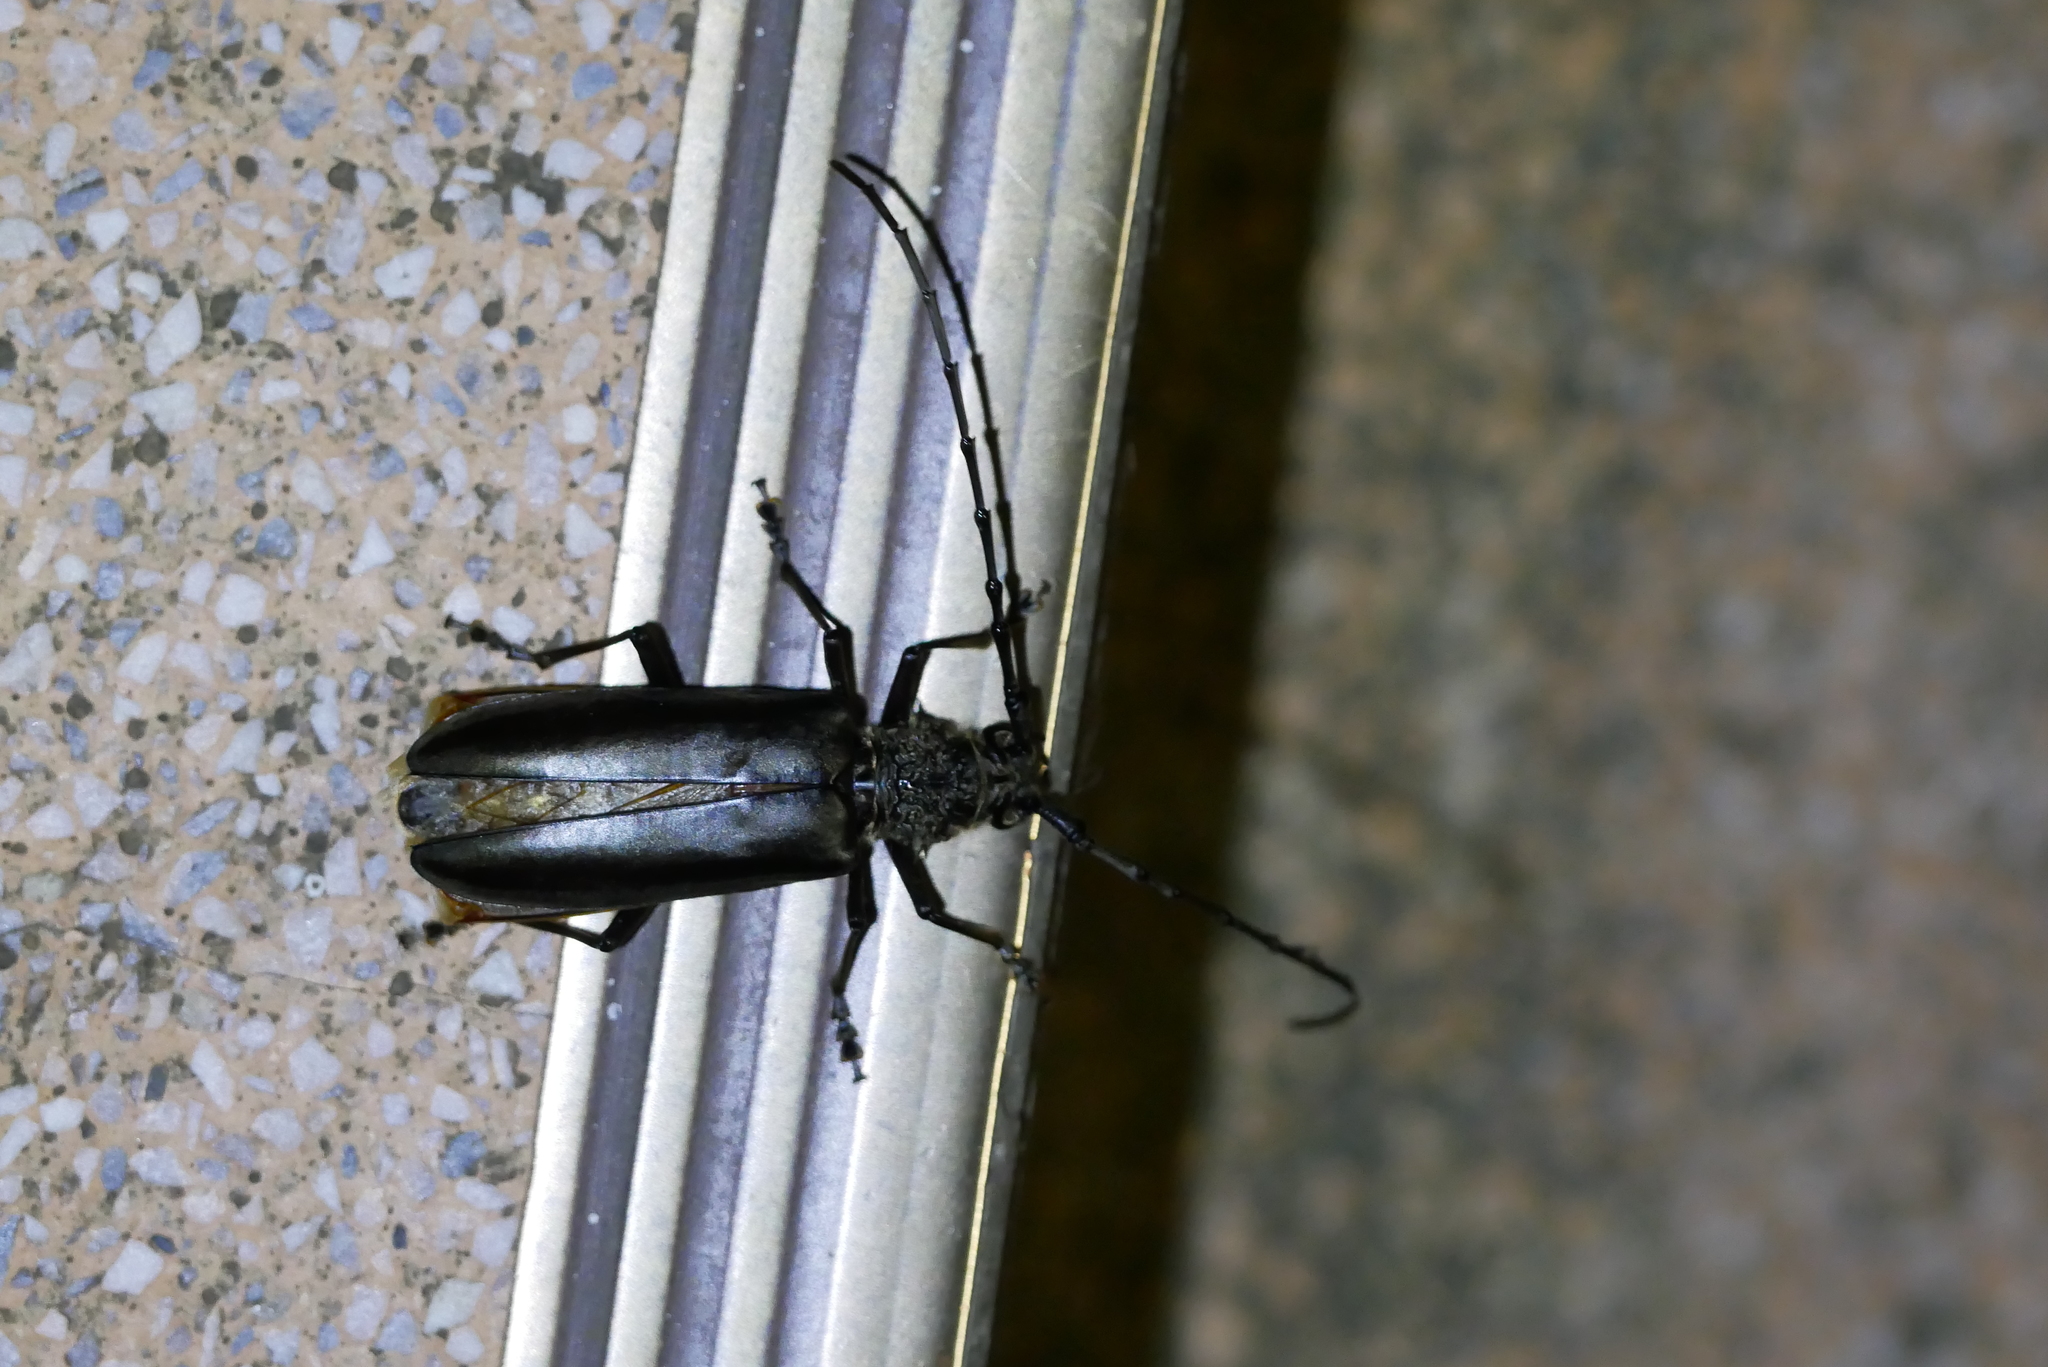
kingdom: Animalia
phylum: Arthropoda
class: Insecta
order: Coleoptera
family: Cerambycidae
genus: Nadezhdiella
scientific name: Nadezhdiella cantori
